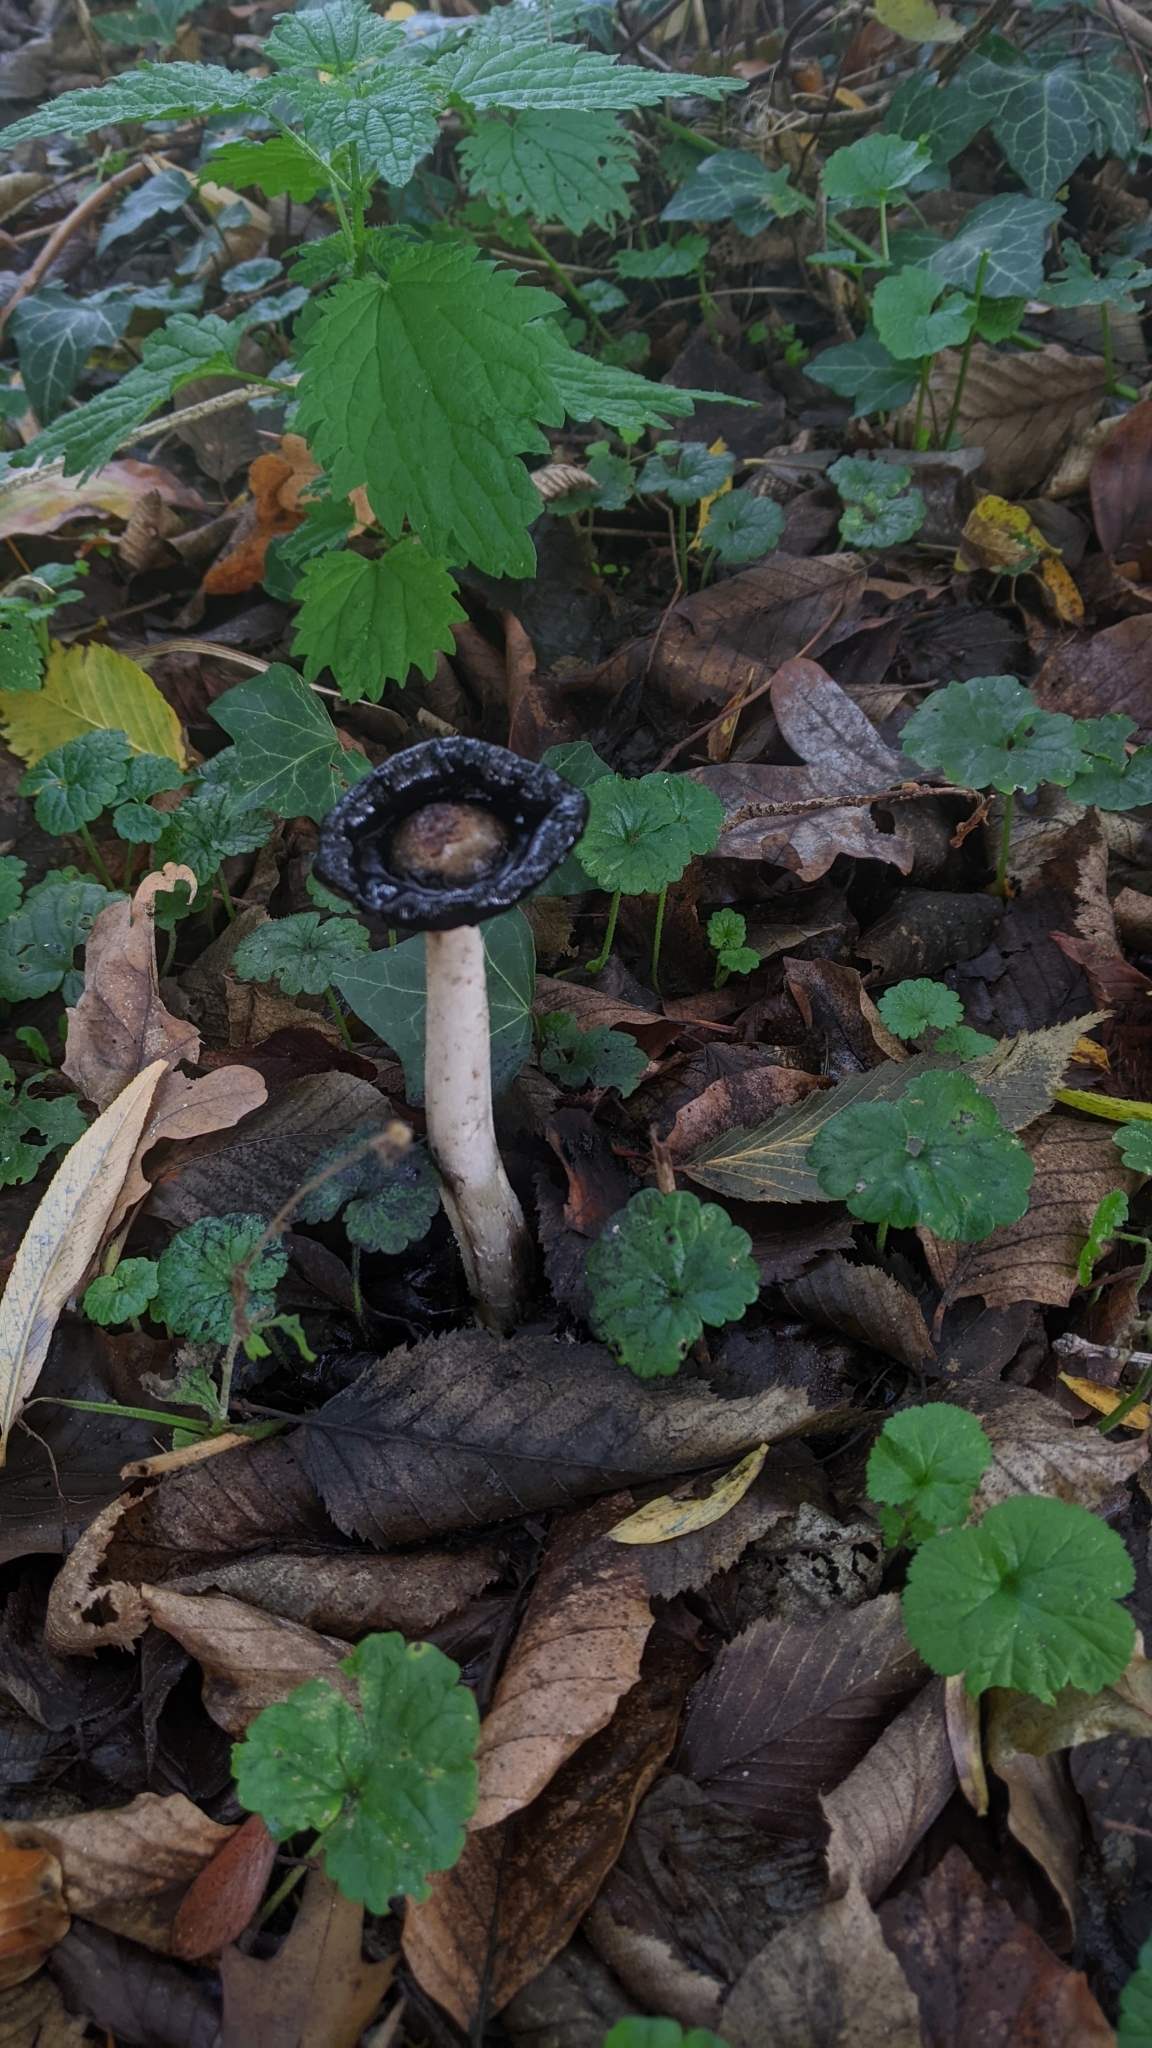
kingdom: Fungi
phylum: Basidiomycota
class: Agaricomycetes
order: Agaricales
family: Agaricaceae
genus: Coprinus
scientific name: Coprinus comatus
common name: Lawyer's wig
